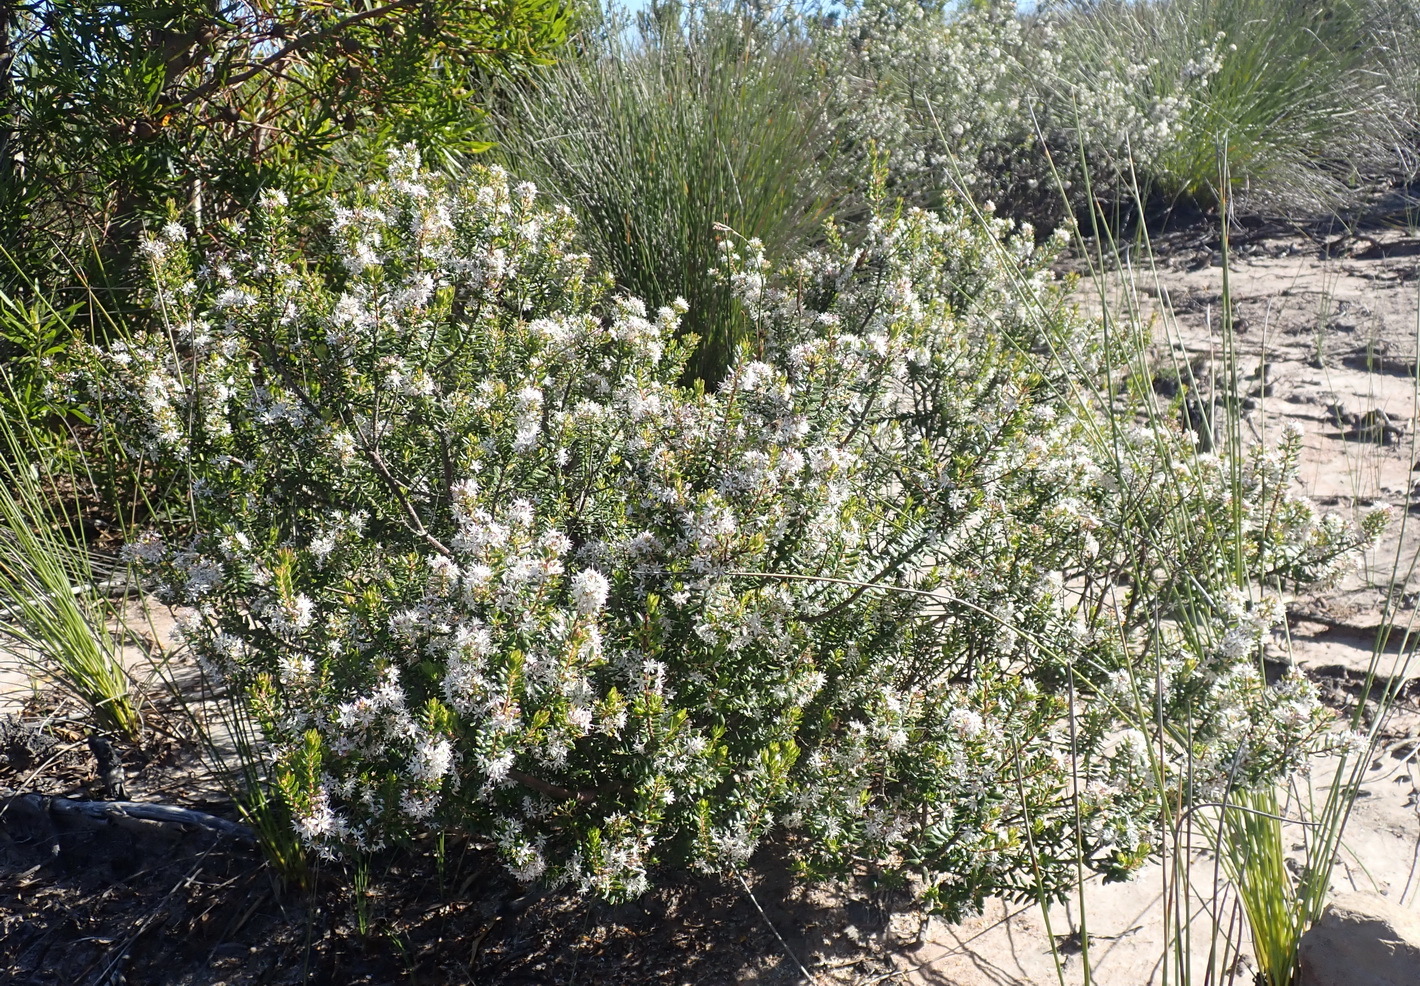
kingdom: Plantae
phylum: Tracheophyta
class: Magnoliopsida
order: Sapindales
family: Rutaceae
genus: Agathosma
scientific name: Agathosma ovata
